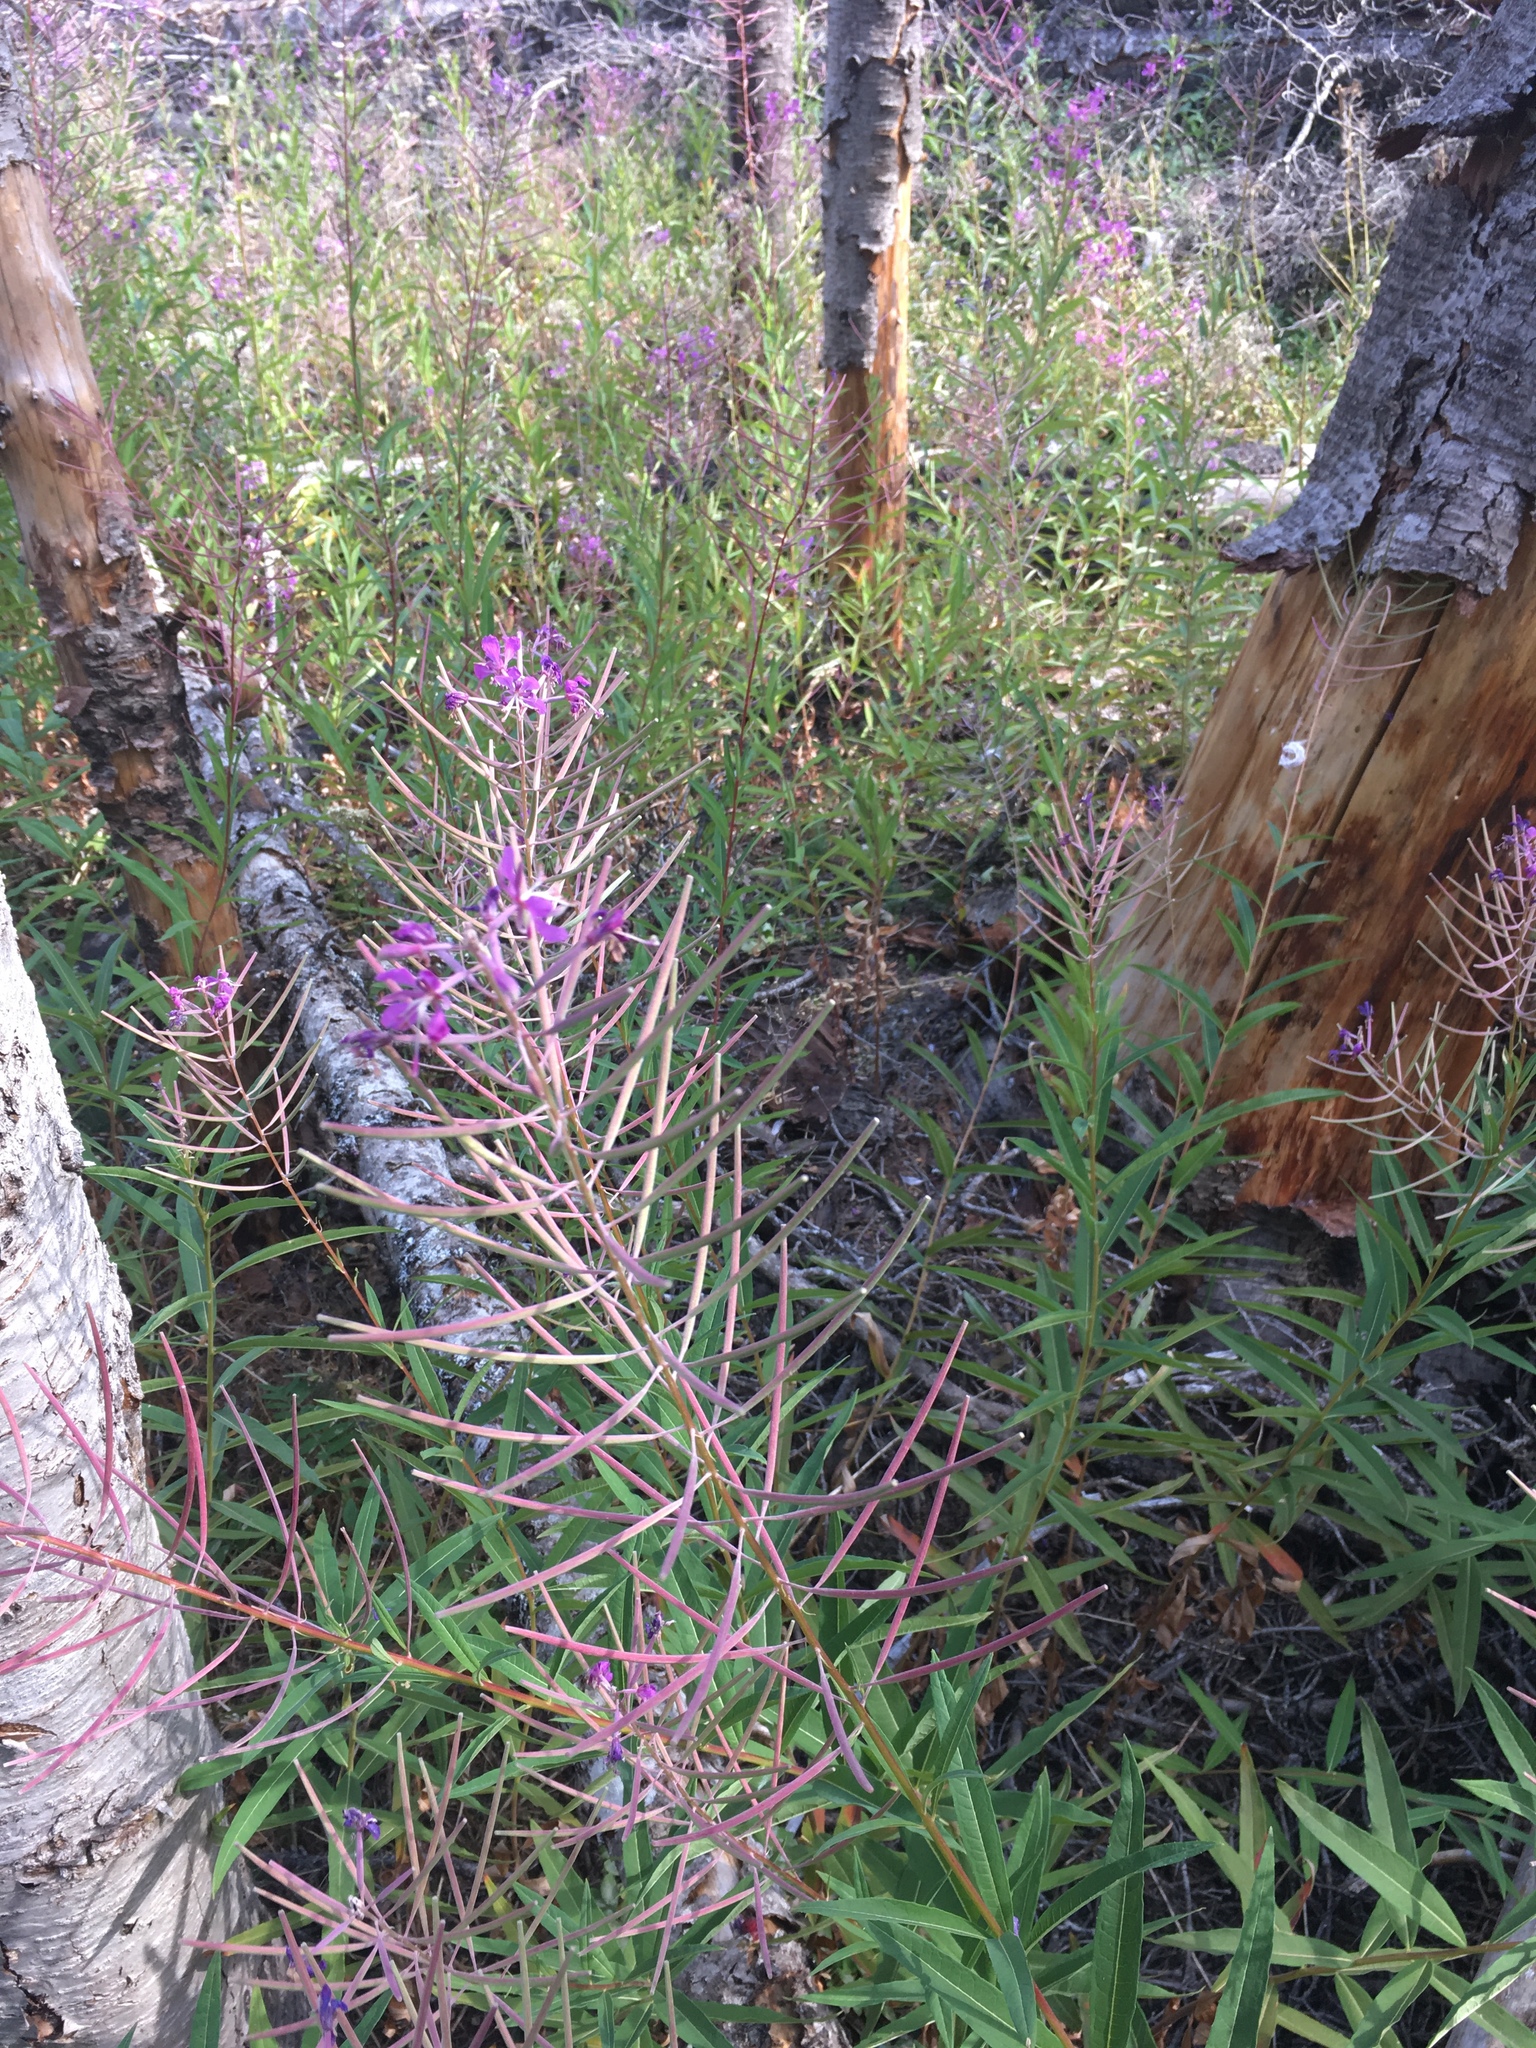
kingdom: Plantae
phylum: Tracheophyta
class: Magnoliopsida
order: Myrtales
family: Onagraceae
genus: Chamaenerion
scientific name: Chamaenerion angustifolium
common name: Fireweed
